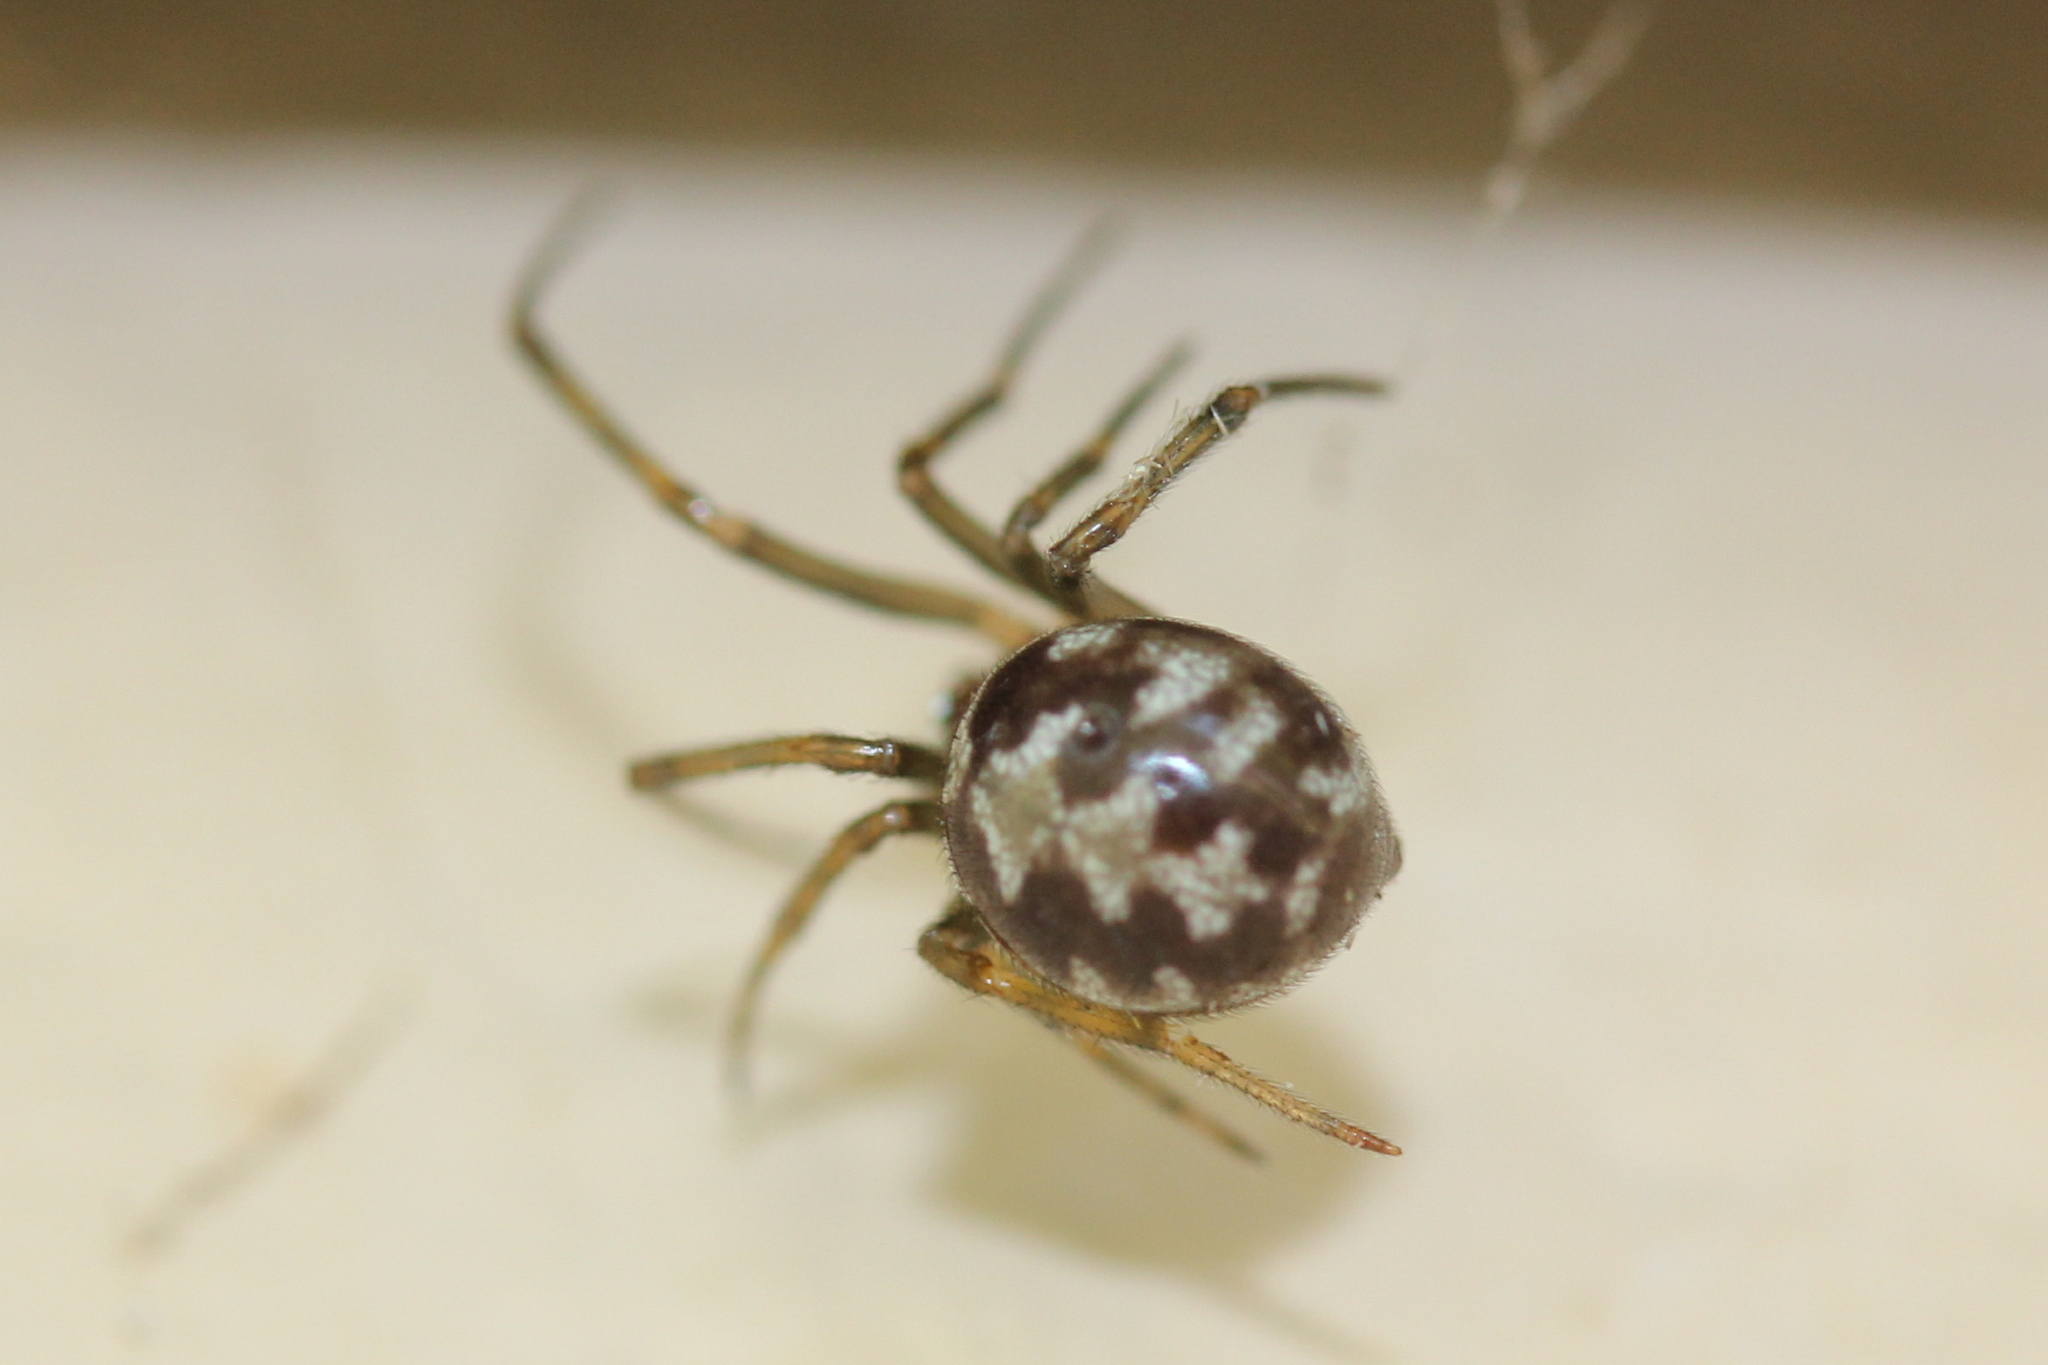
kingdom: Animalia
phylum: Arthropoda
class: Arachnida
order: Araneae
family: Theridiidae
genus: Steatoda
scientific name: Steatoda triangulosa
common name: Triangulate bud spider
